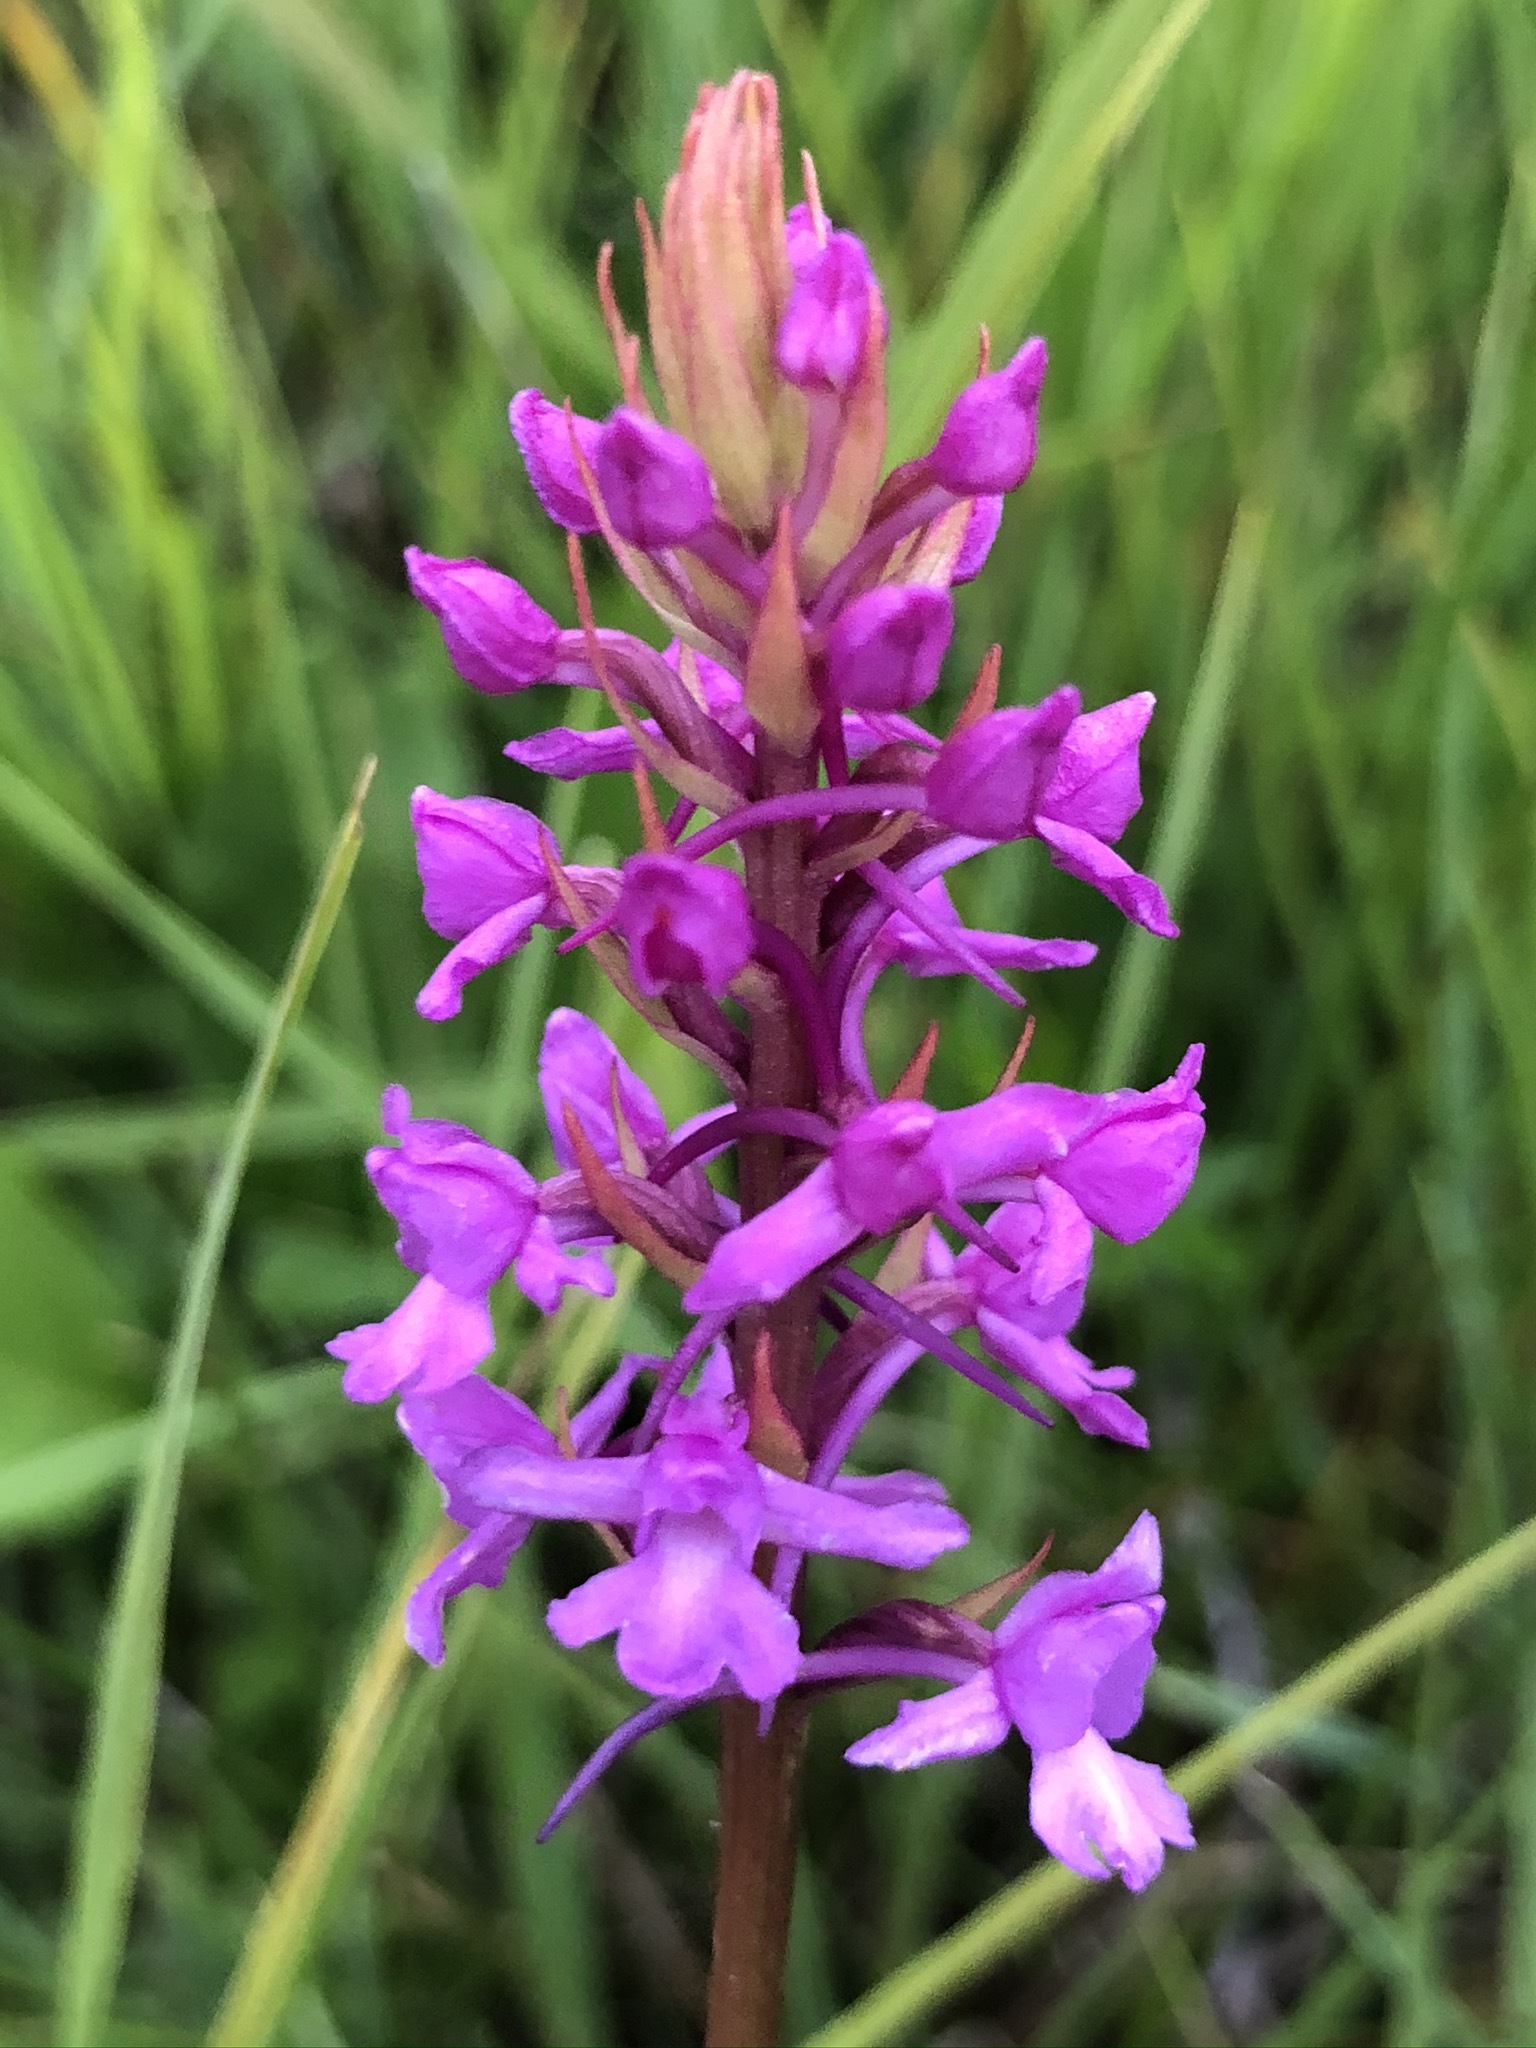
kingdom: Plantae
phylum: Tracheophyta
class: Liliopsida
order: Asparagales
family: Orchidaceae
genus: Gymnadenia
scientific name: Gymnadenia conopsea
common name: Fragrant orchid
